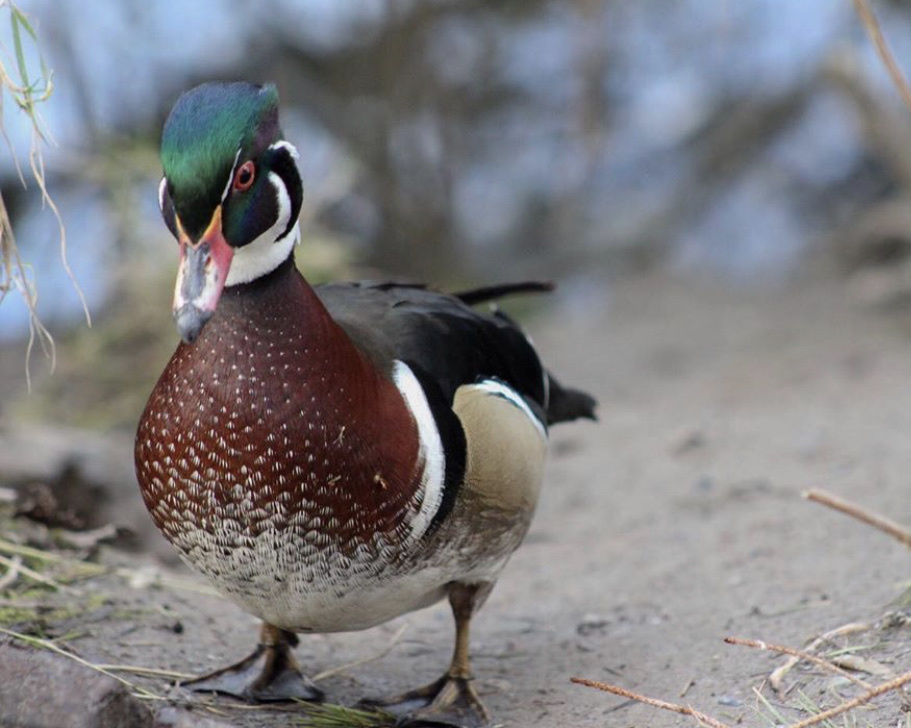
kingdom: Animalia
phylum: Chordata
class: Aves
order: Anseriformes
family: Anatidae
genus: Aix
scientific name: Aix sponsa
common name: Wood duck
